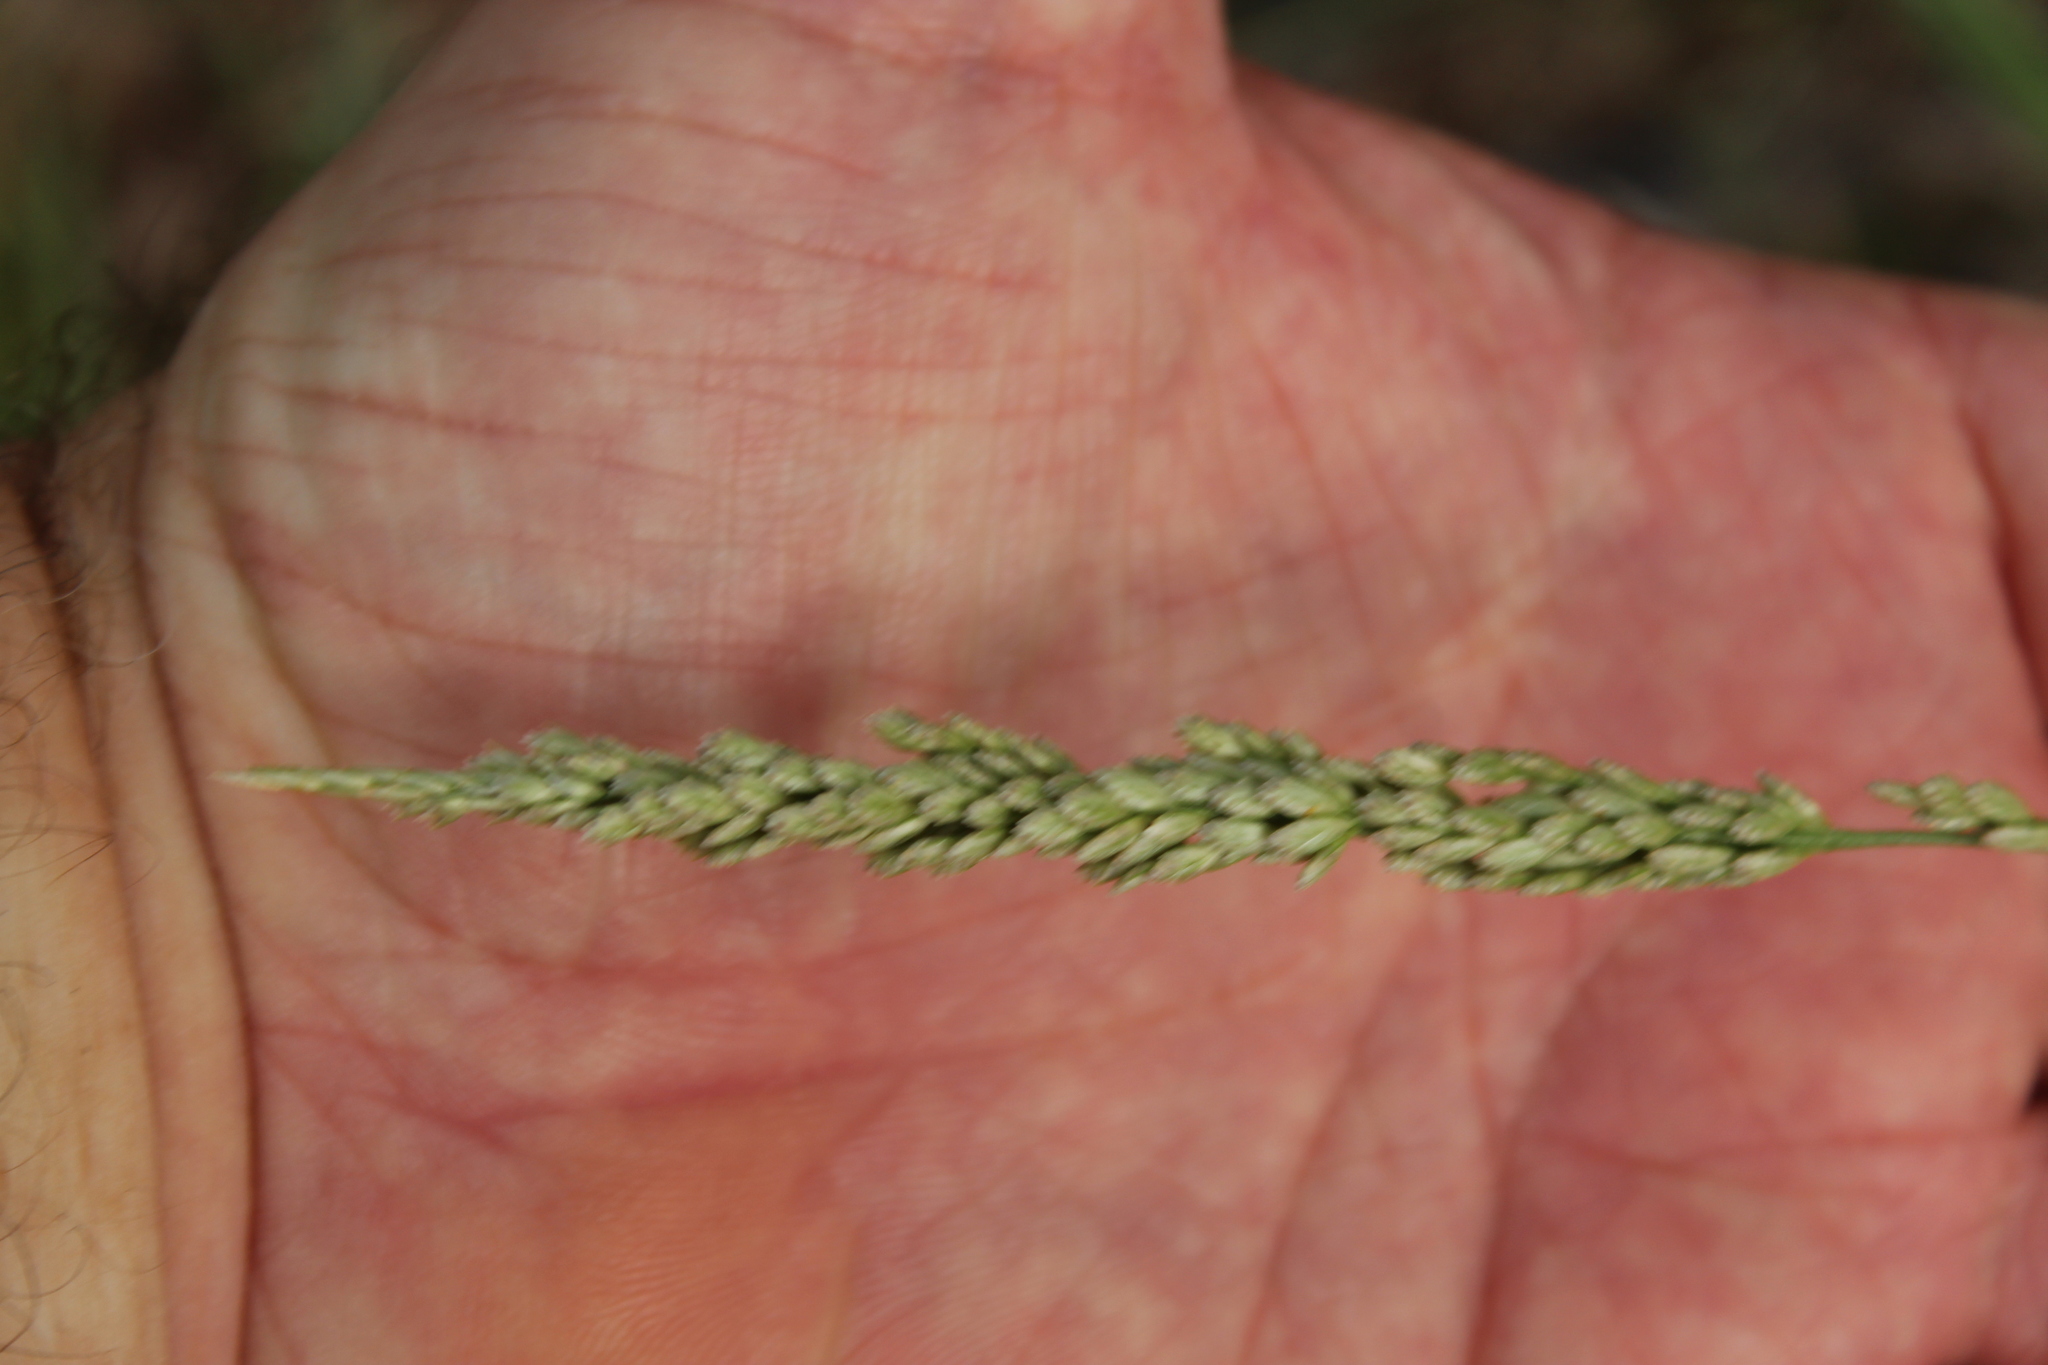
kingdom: Plantae
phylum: Tracheophyta
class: Liliopsida
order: Poales
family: Poaceae
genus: Tridens
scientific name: Tridens albescens
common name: White tridens
